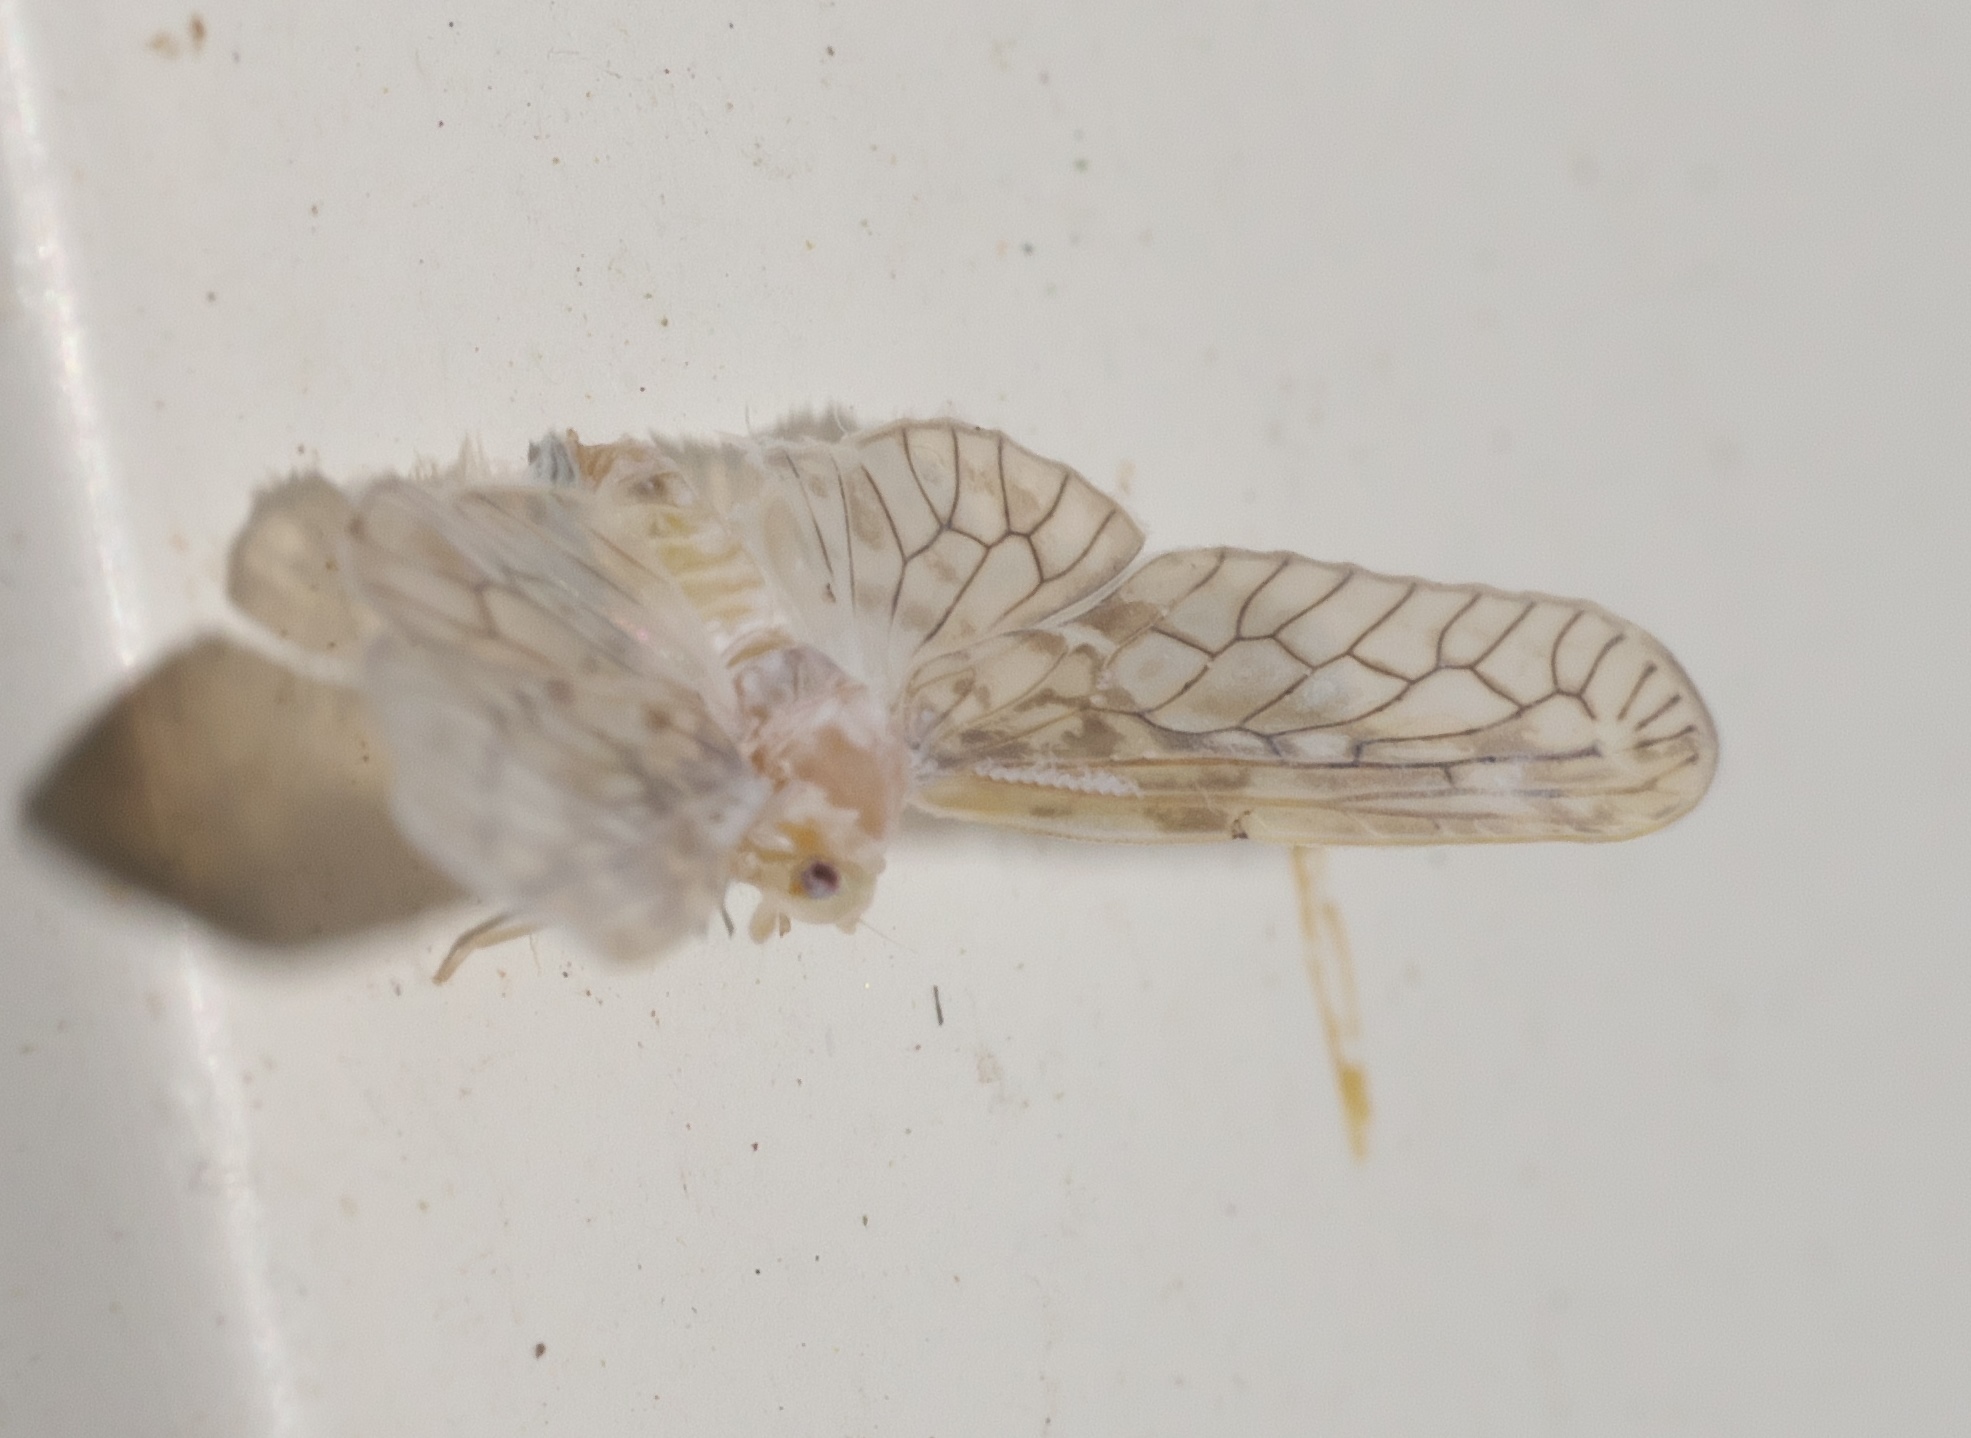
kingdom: Animalia
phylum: Arthropoda
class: Insecta
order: Hemiptera
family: Derbidae
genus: Paramysidia
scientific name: Paramysidia mississippiensis
